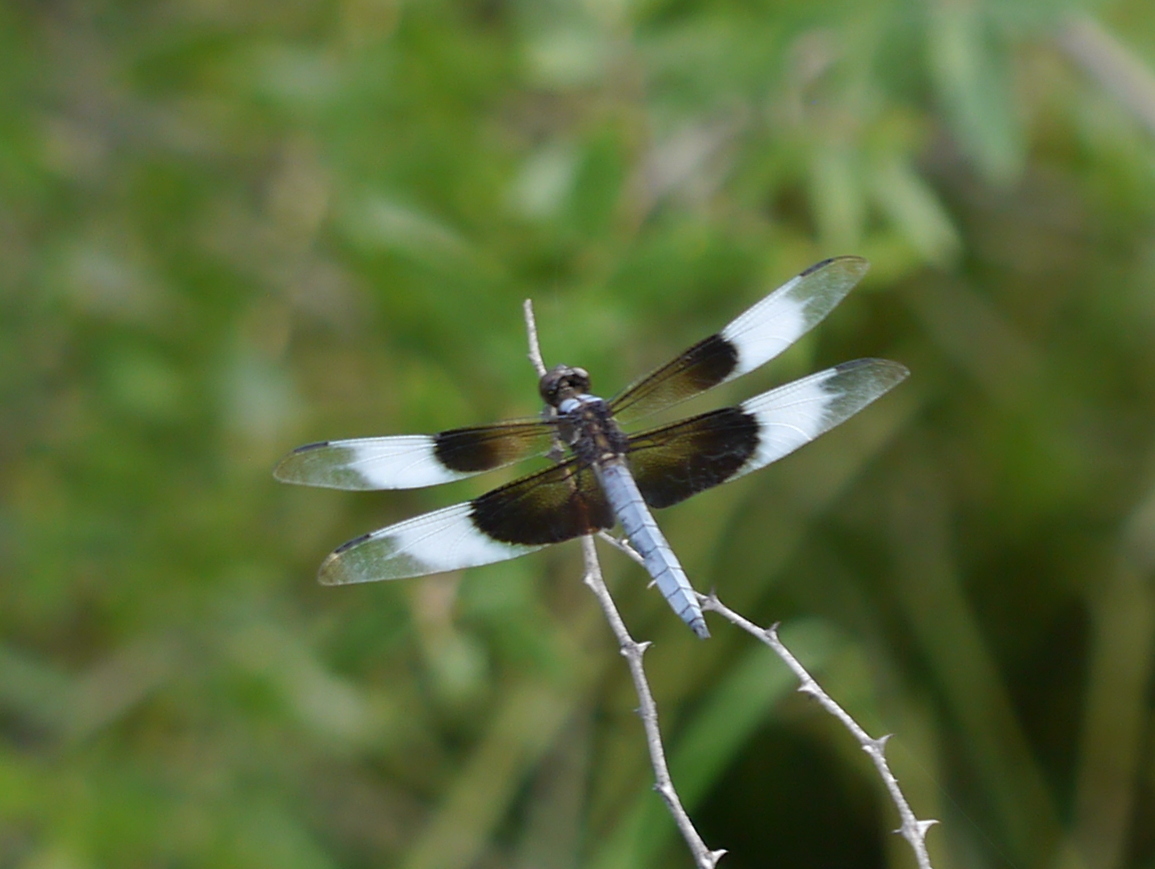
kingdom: Animalia
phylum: Arthropoda
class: Insecta
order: Odonata
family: Libellulidae
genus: Libellula
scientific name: Libellula luctuosa
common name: Widow skimmer
